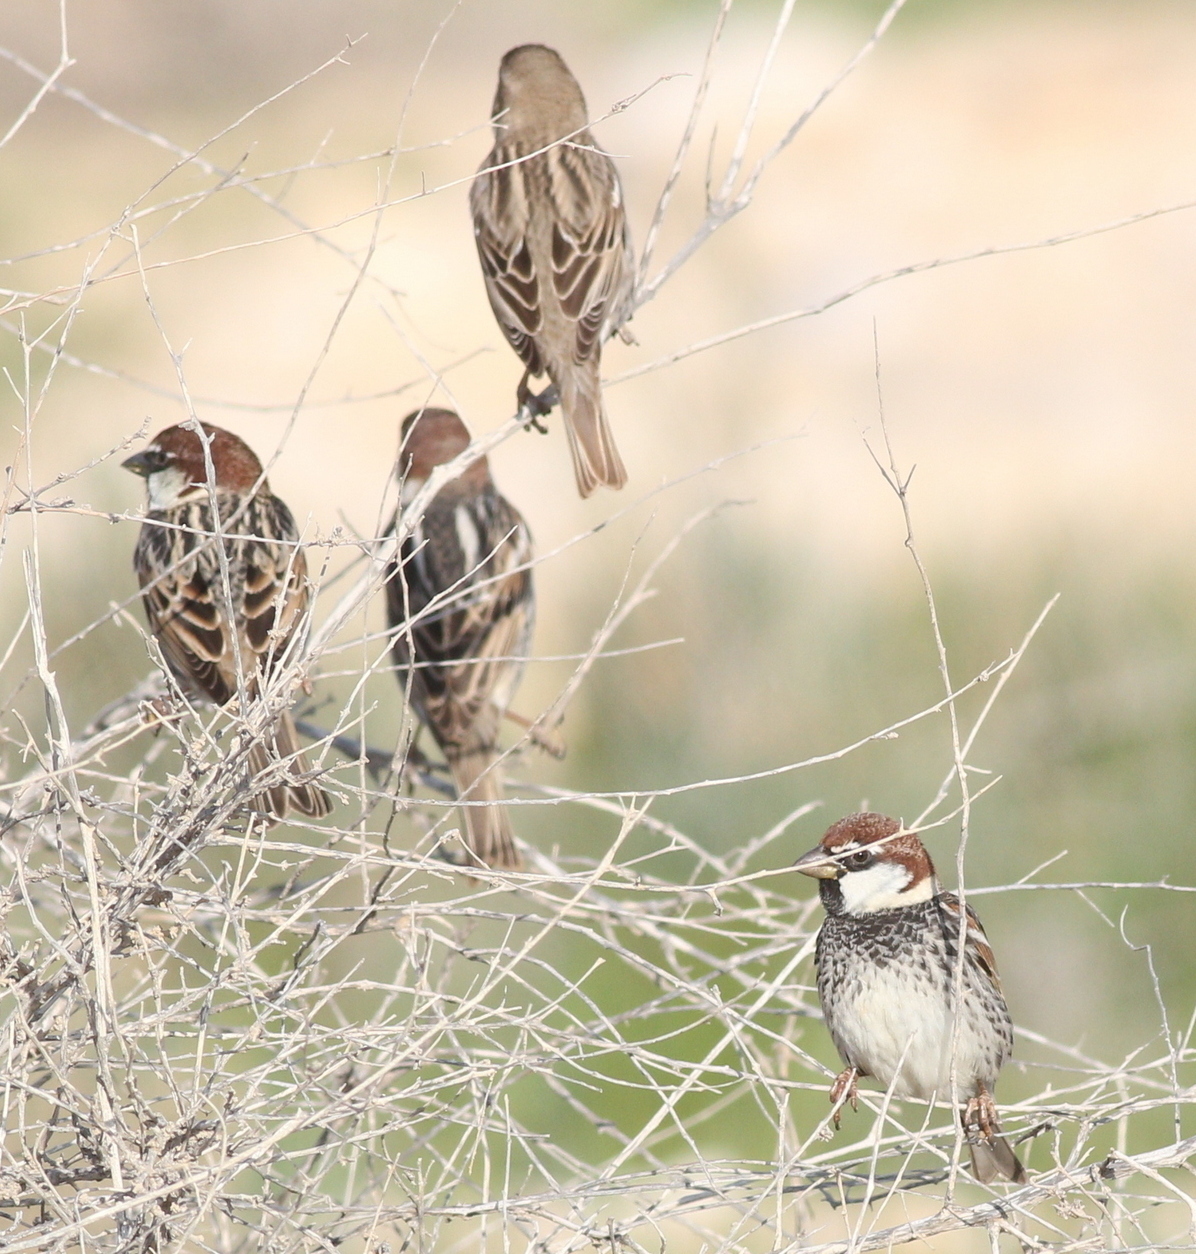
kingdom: Animalia
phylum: Chordata
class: Aves
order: Passeriformes
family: Passeridae
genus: Passer
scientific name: Passer hispaniolensis
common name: Spanish sparrow
